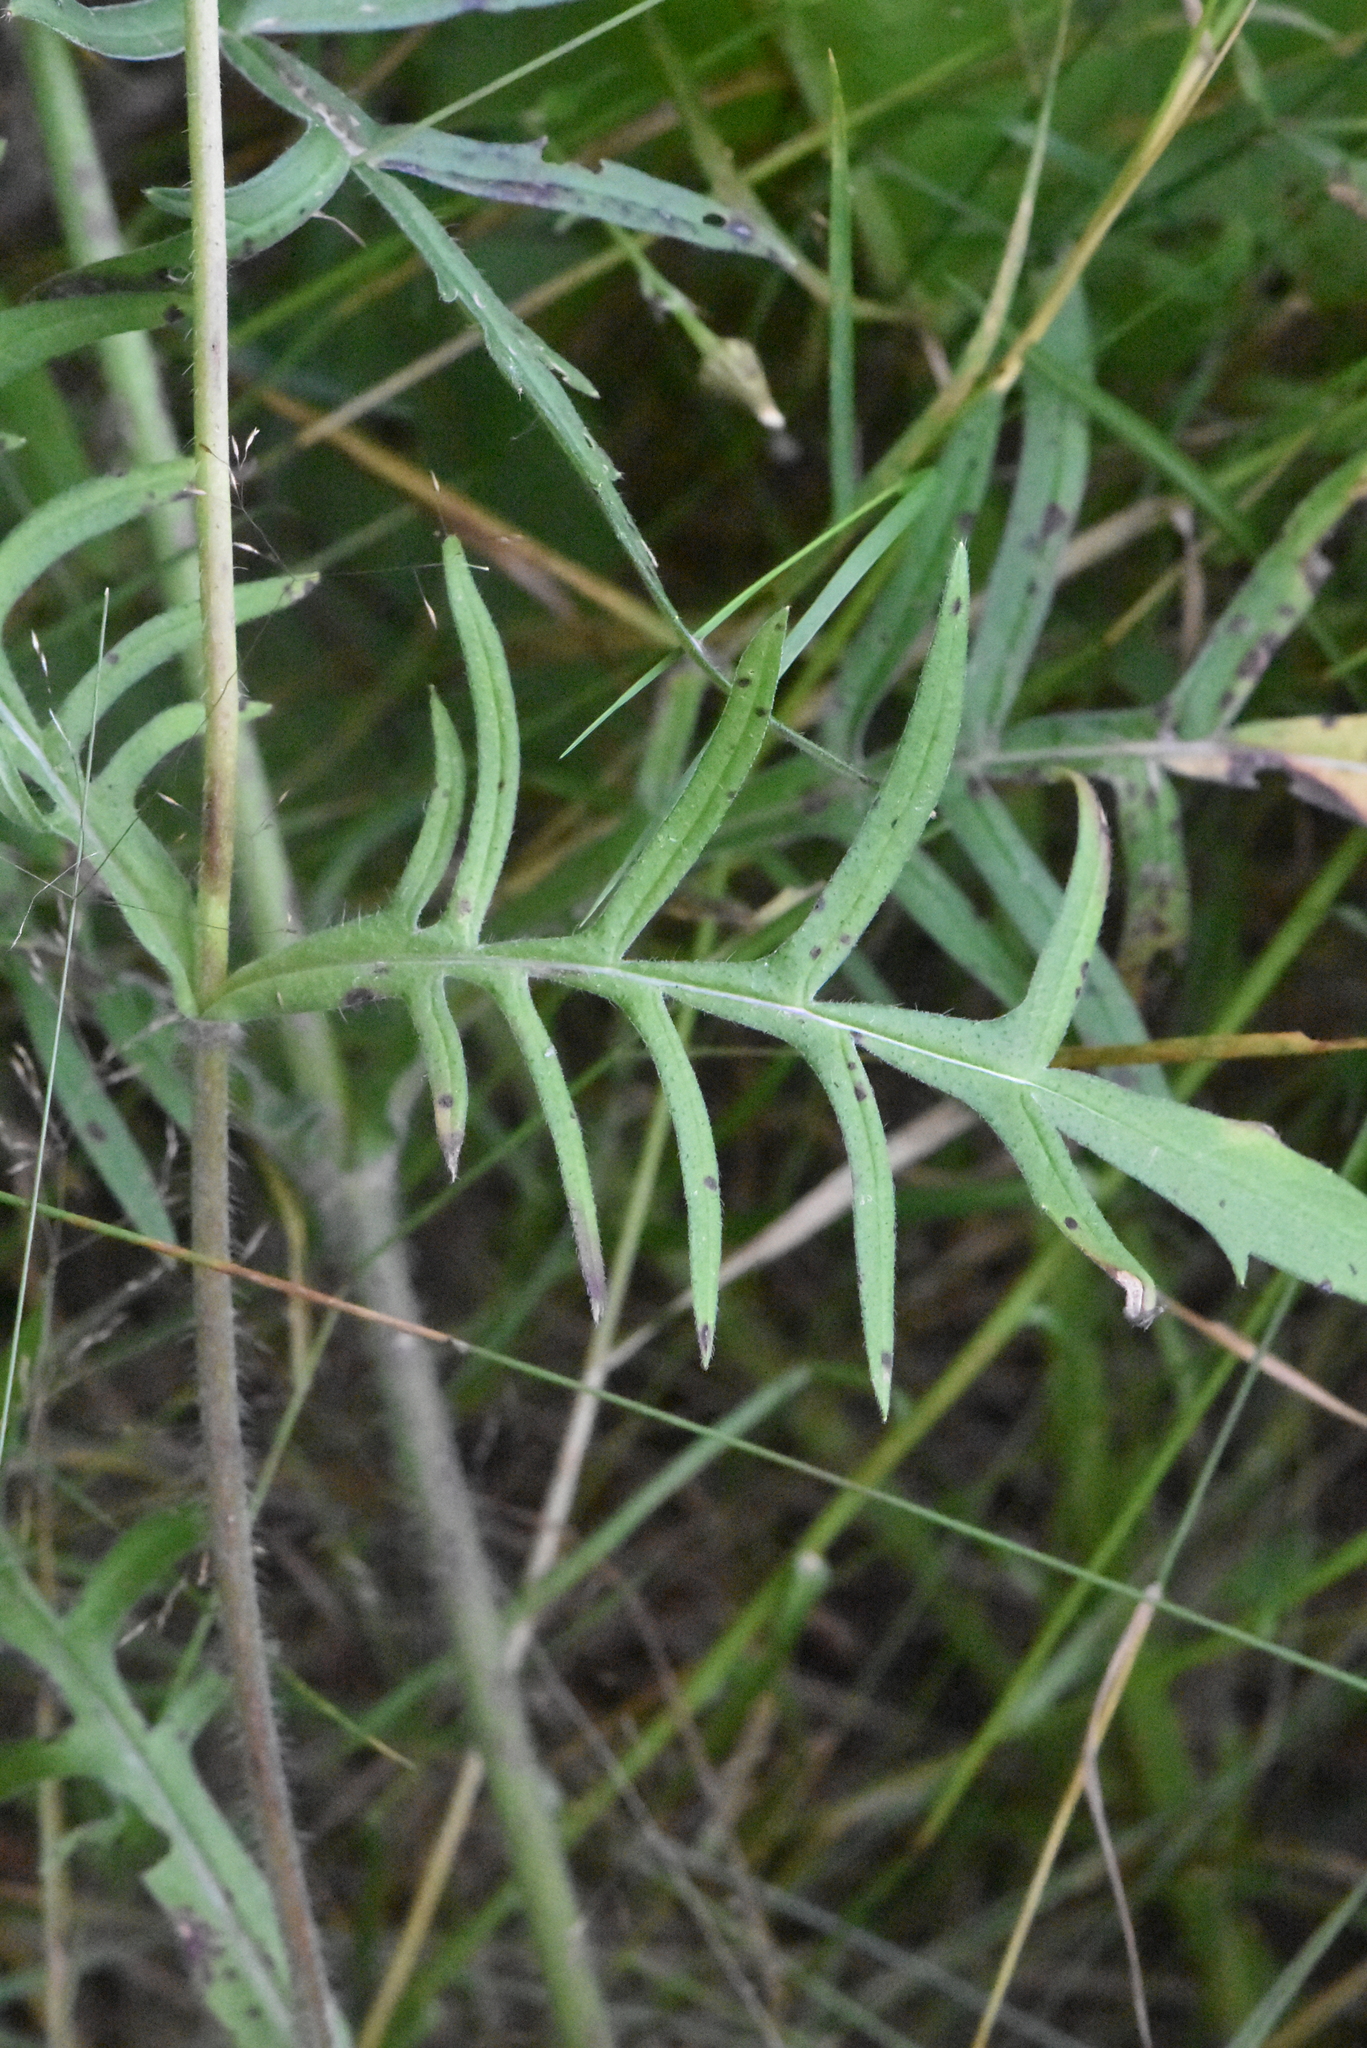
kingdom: Plantae
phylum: Tracheophyta
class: Magnoliopsida
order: Dipsacales
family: Caprifoliaceae
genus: Knautia
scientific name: Knautia arvensis
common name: Field scabiosa
